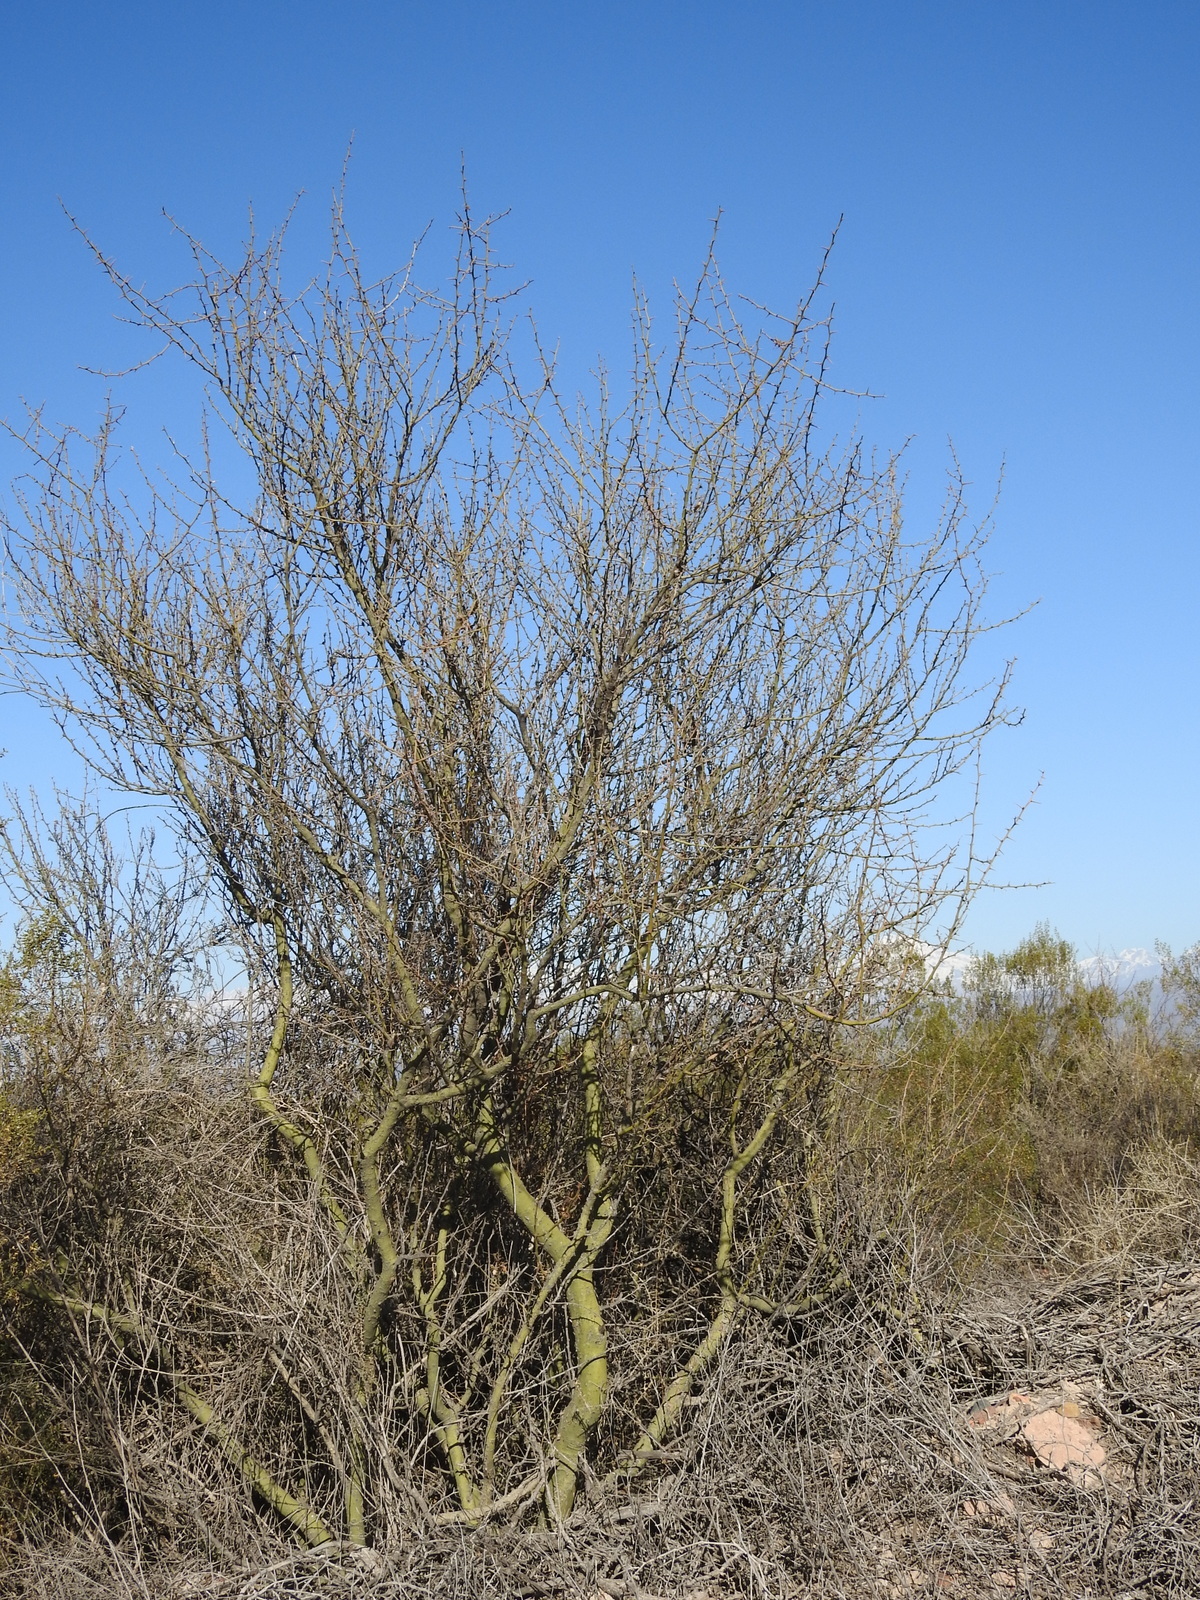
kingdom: Plantae
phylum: Tracheophyta
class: Magnoliopsida
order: Fabales
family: Fabaceae
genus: Parkinsonia
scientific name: Parkinsonia praecox
